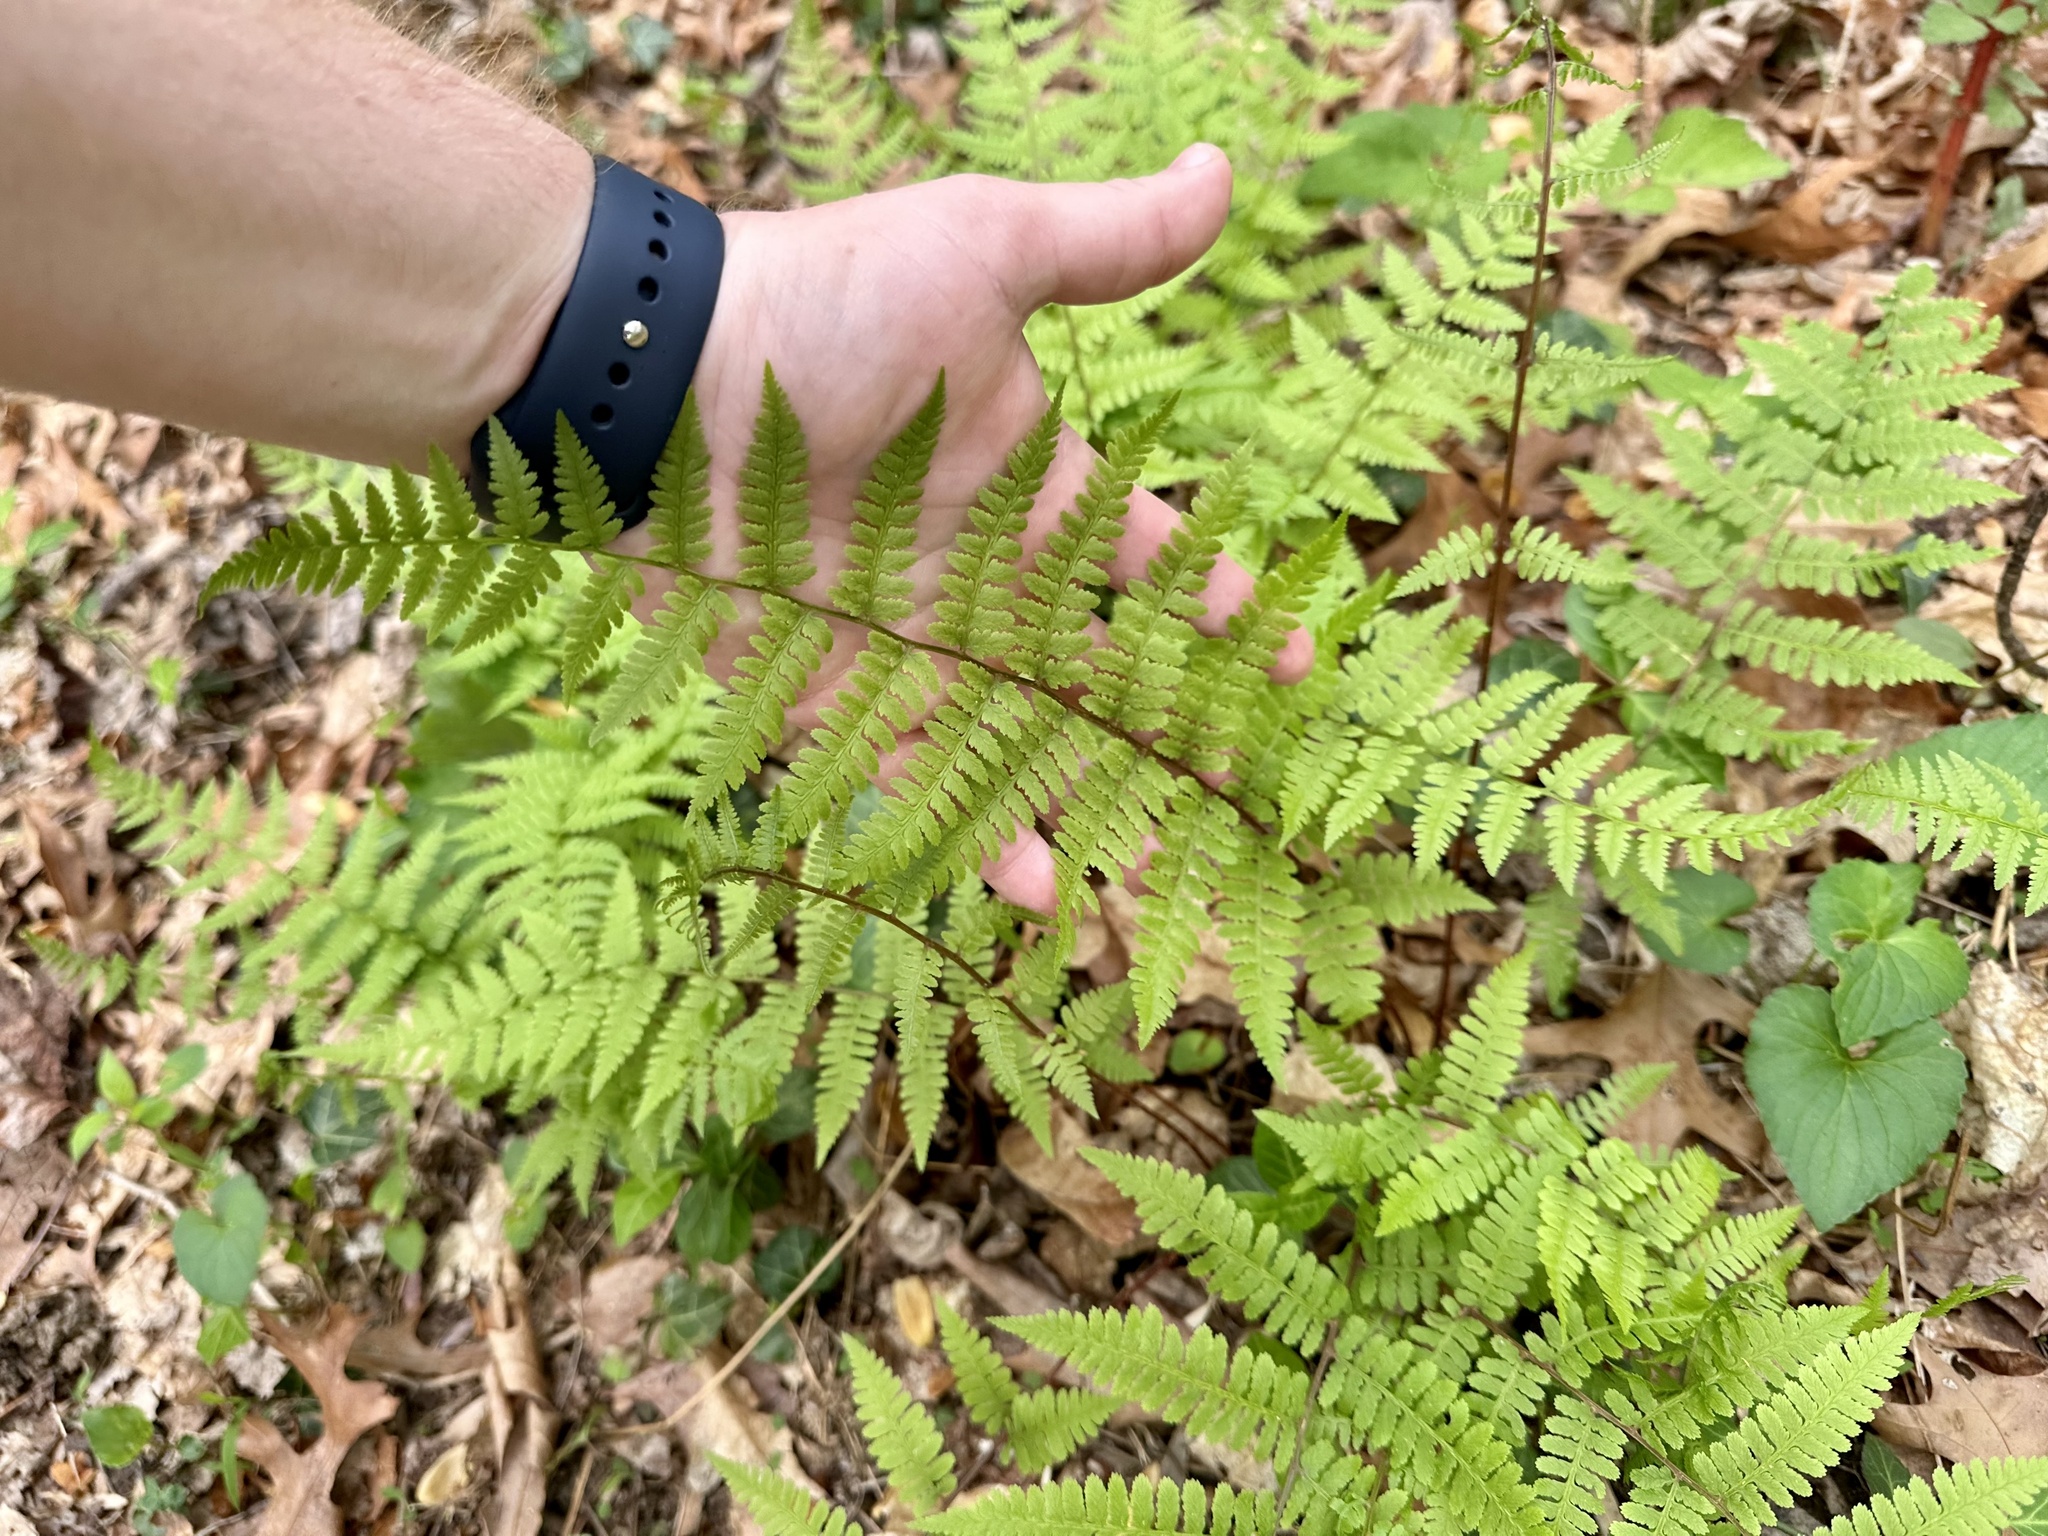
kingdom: Plantae
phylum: Tracheophyta
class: Polypodiopsida
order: Polypodiales
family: Athyriaceae
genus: Athyrium
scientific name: Athyrium asplenioides
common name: Southern lady fern
